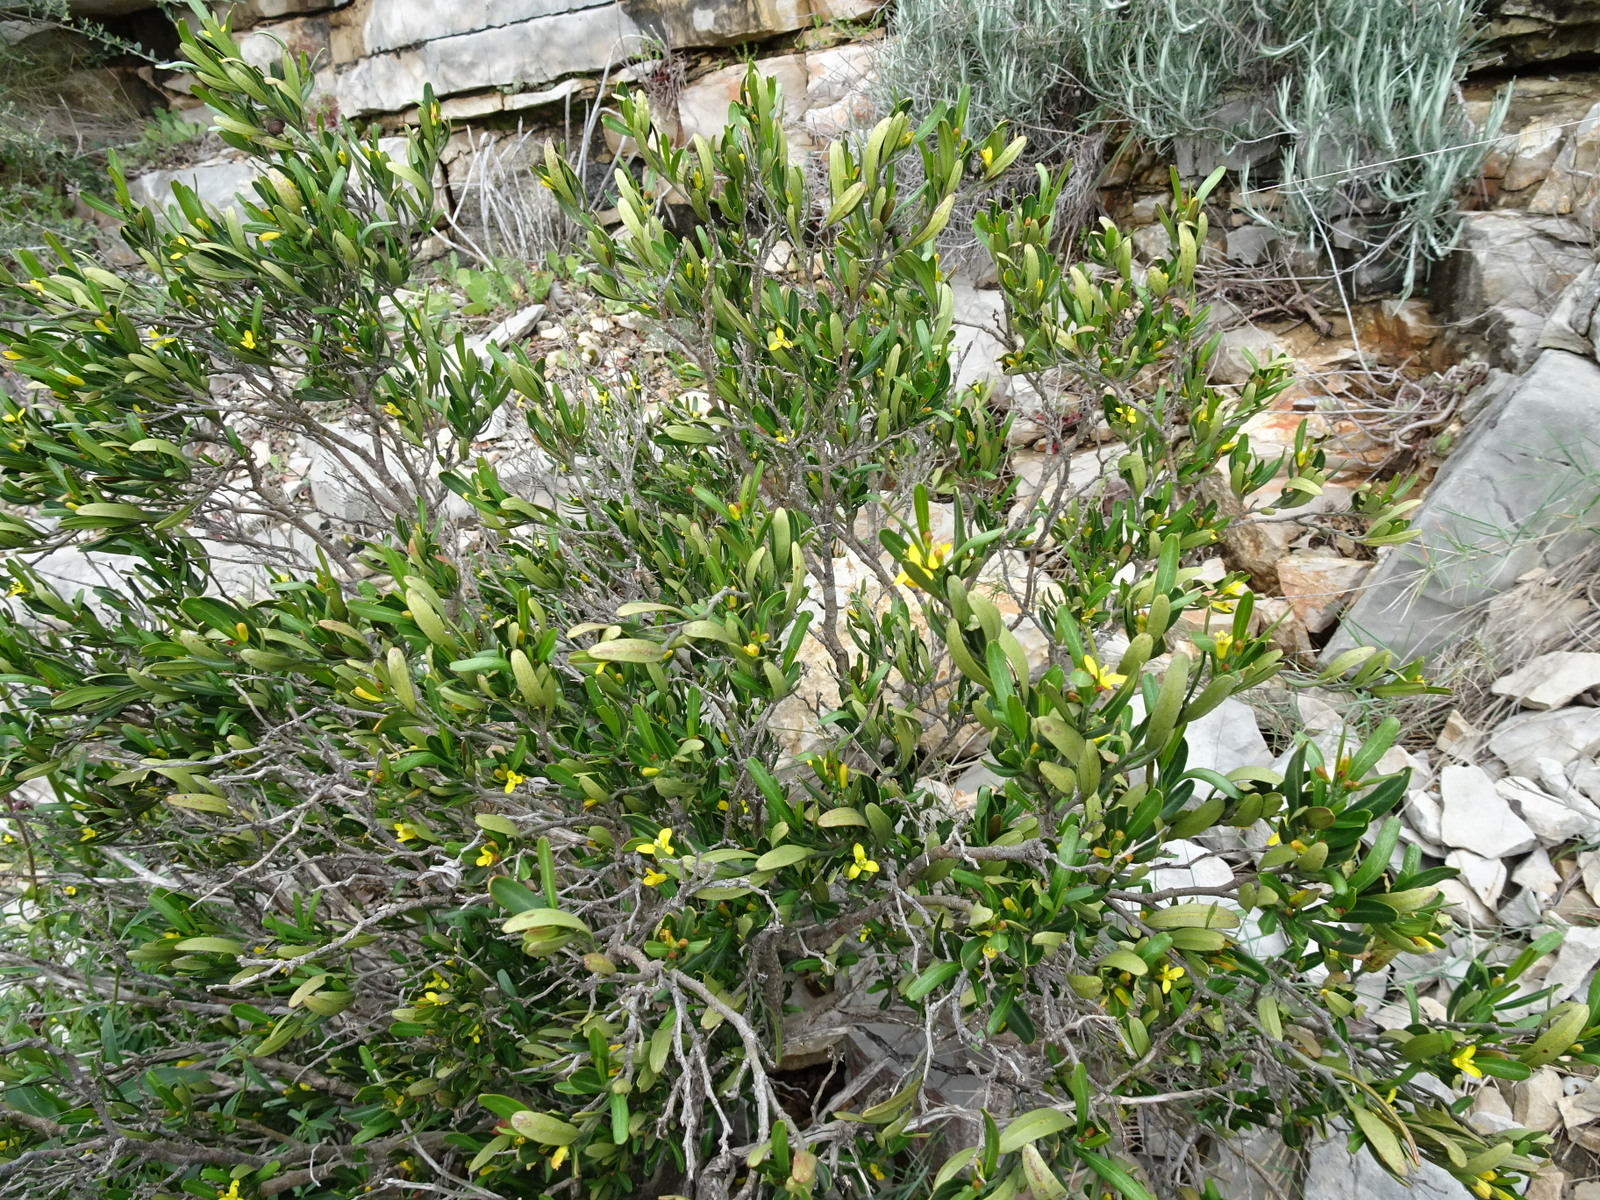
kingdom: Plantae
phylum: Tracheophyta
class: Magnoliopsida
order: Sapindales
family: Rutaceae
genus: Cneorum
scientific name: Cneorum tricoccon
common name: Spurge olive
